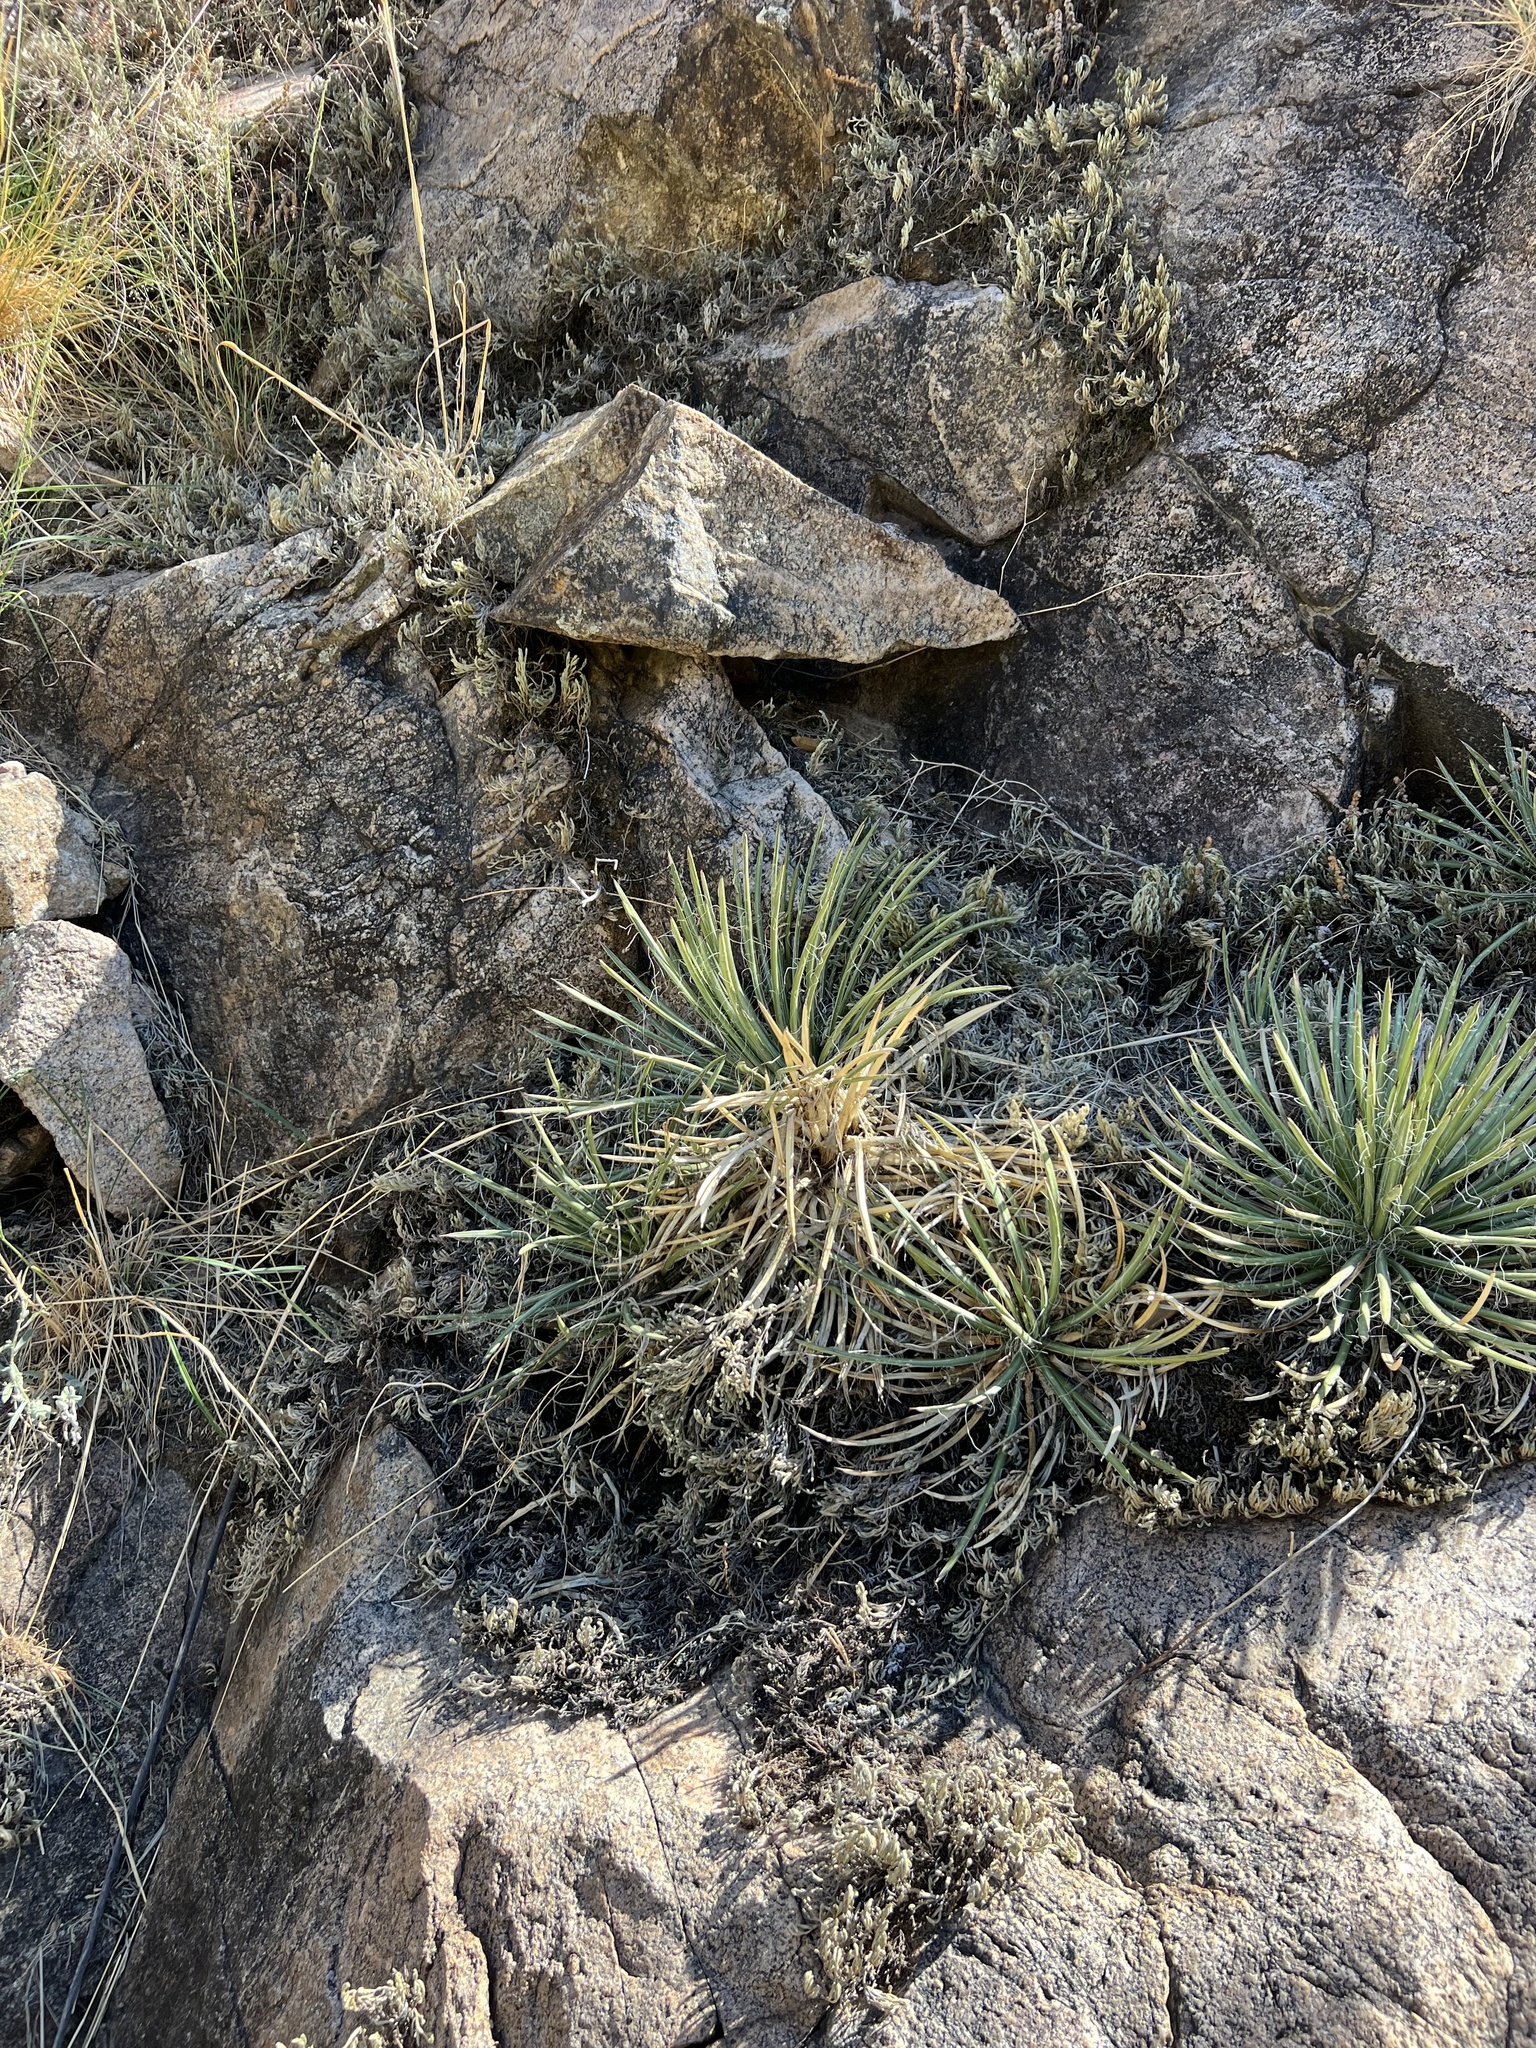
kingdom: Plantae
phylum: Tracheophyta
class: Liliopsida
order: Asparagales
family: Asparagaceae
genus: Agave
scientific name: Agave schottii
